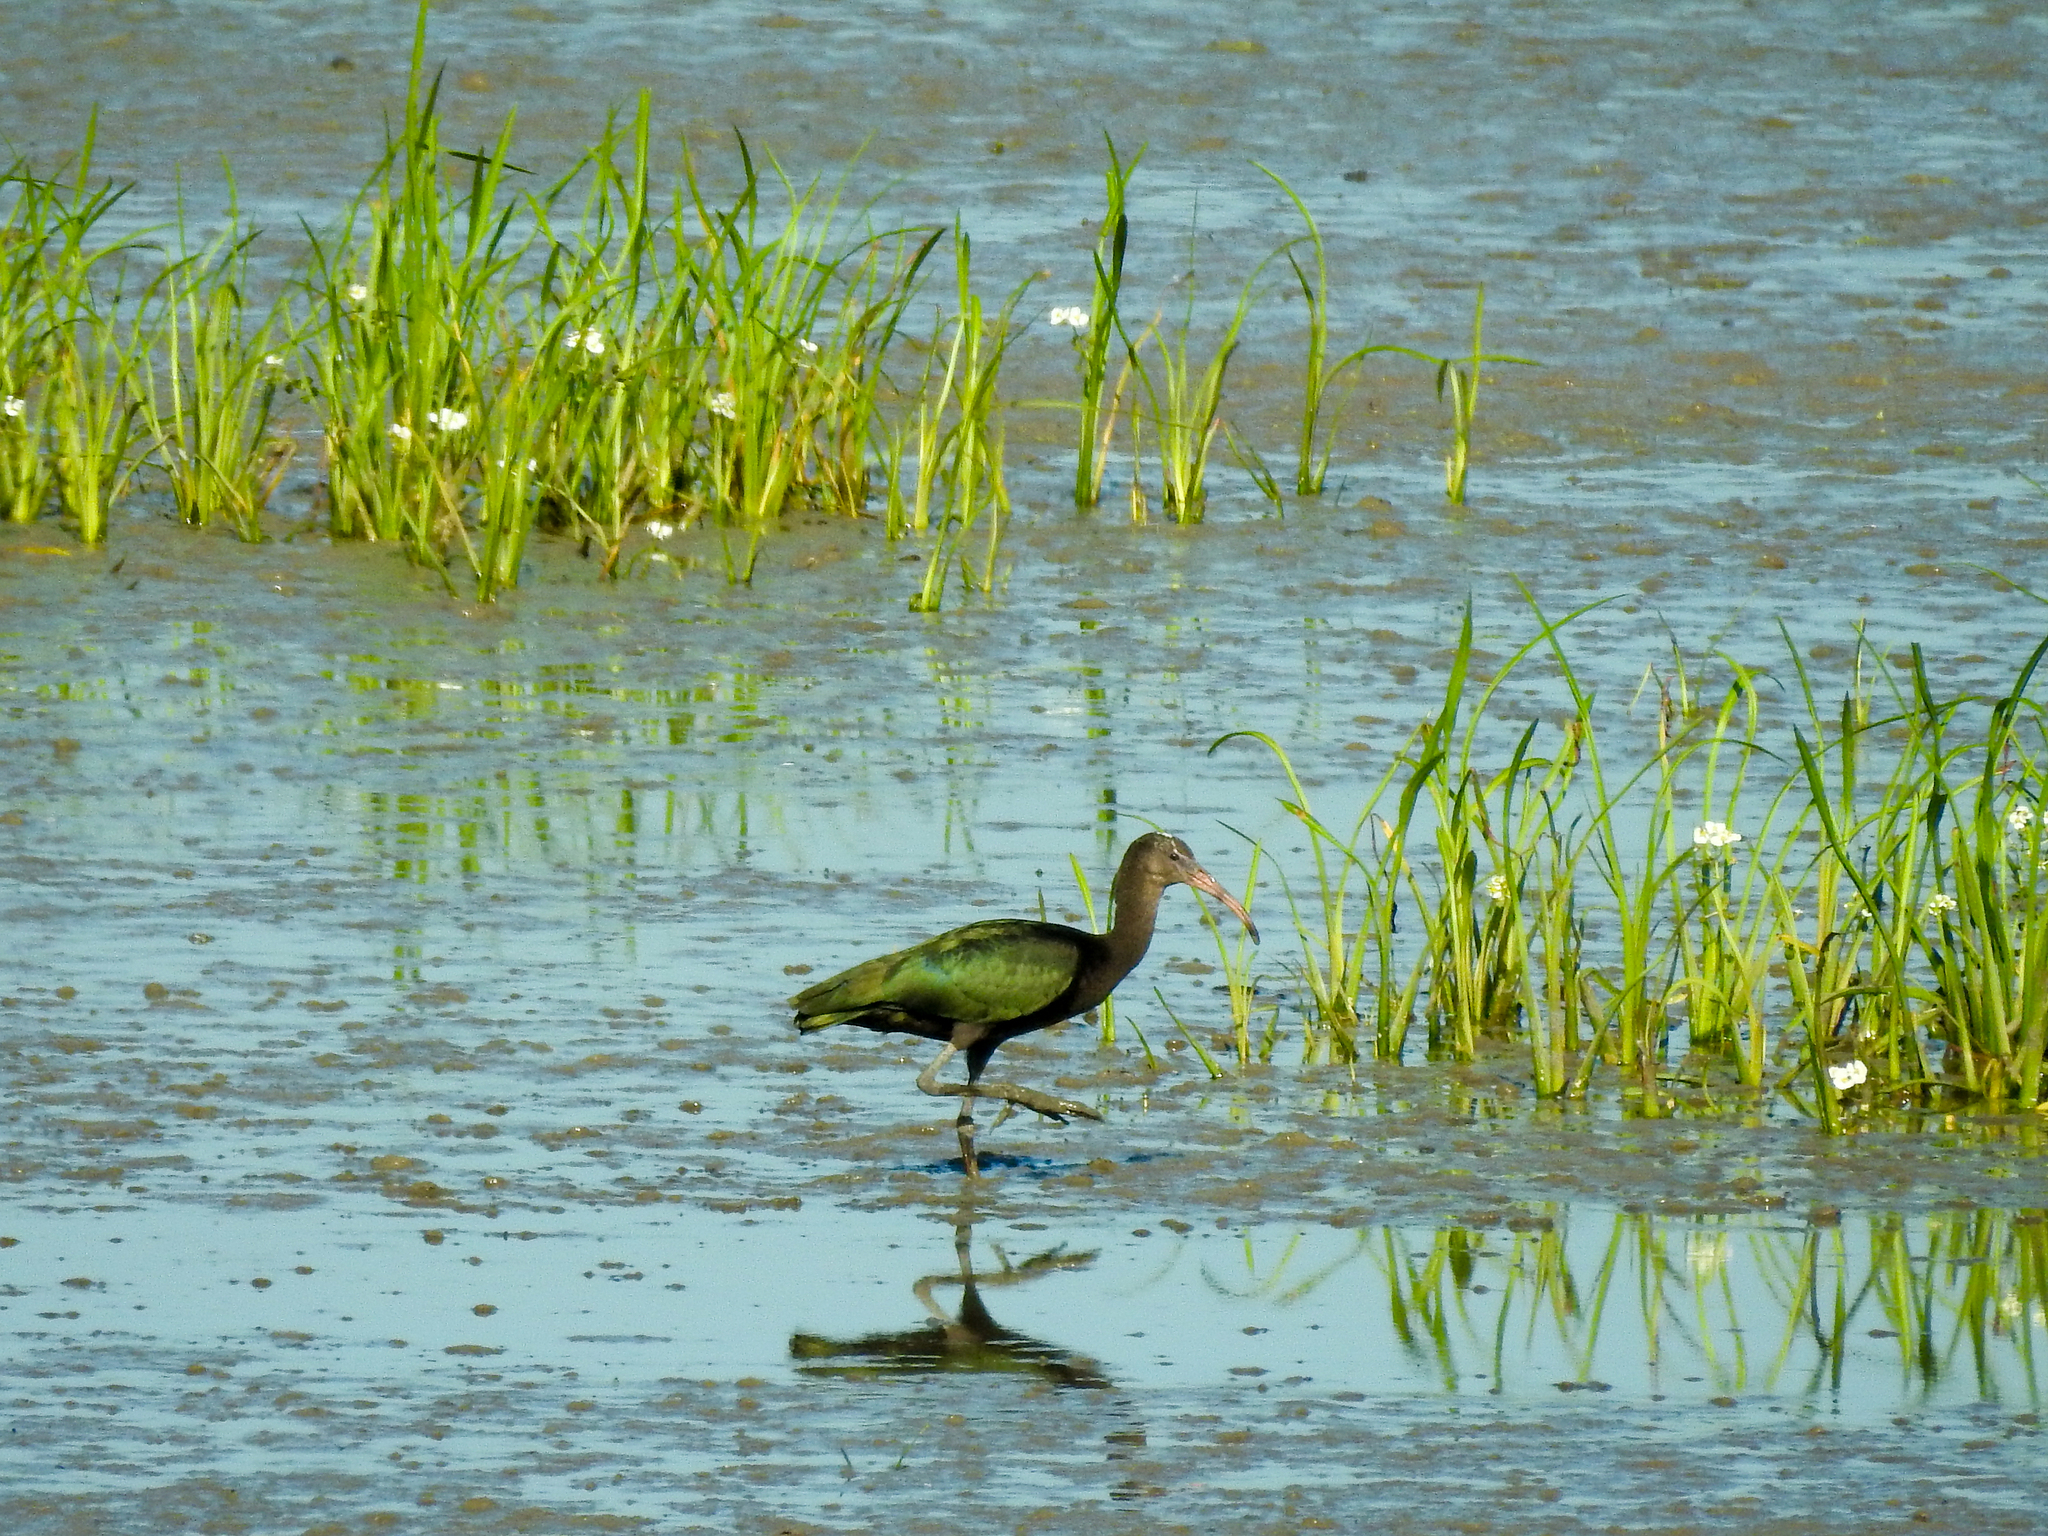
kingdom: Animalia
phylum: Chordata
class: Aves
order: Pelecaniformes
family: Threskiornithidae
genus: Plegadis
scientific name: Plegadis
